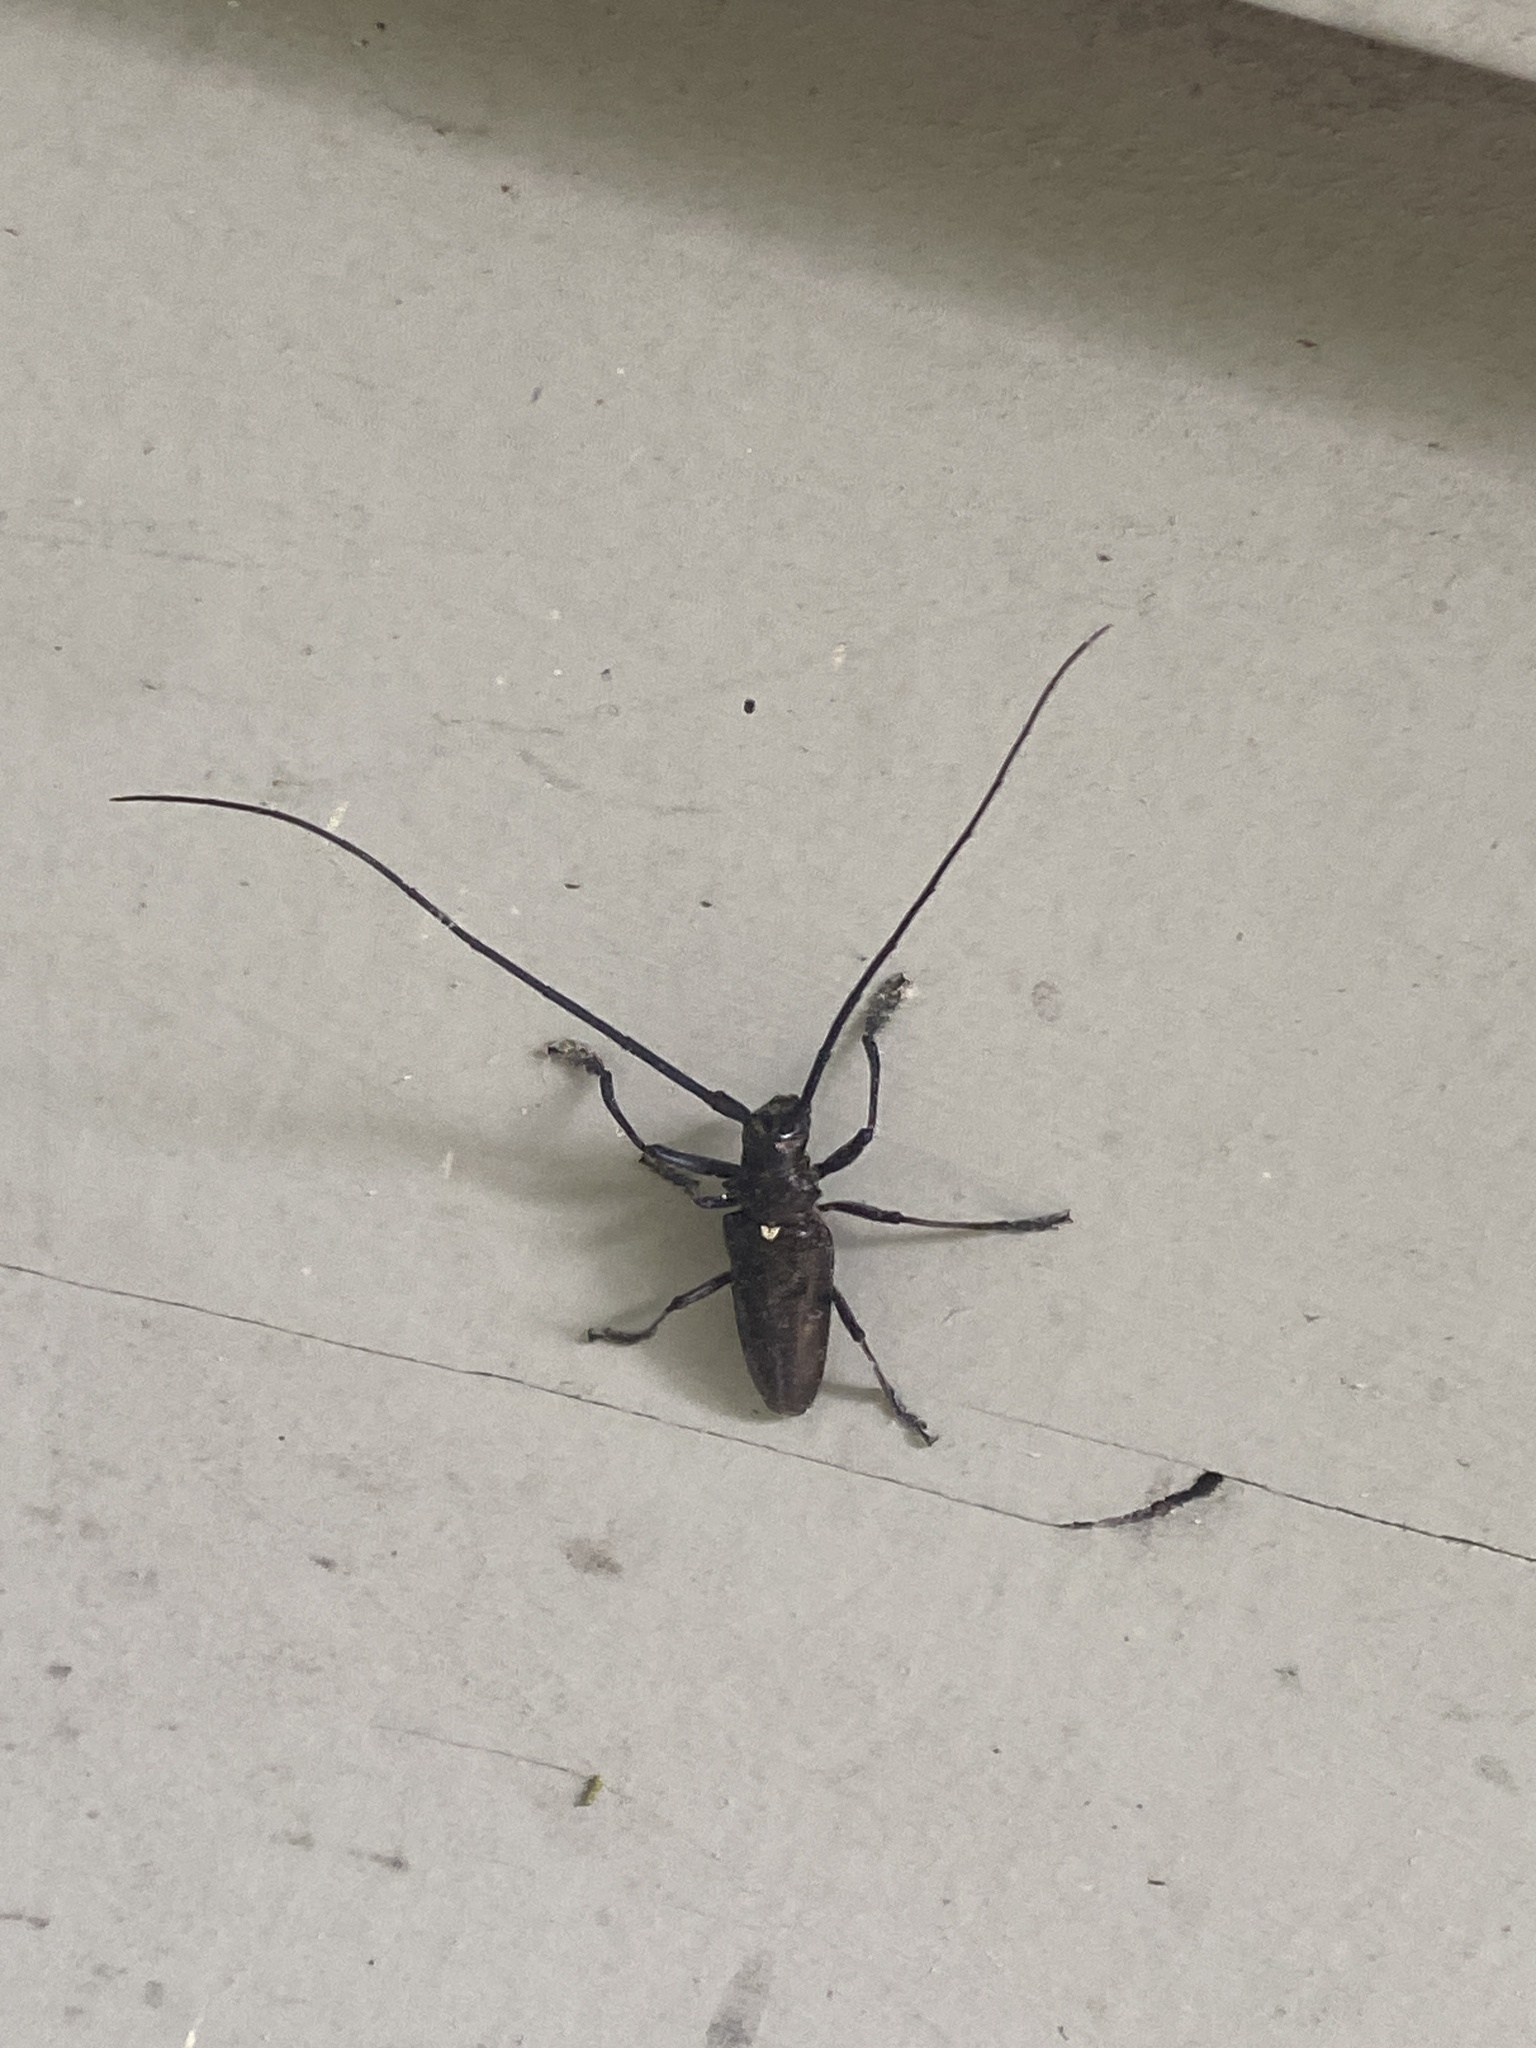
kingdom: Animalia
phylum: Arthropoda
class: Insecta
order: Coleoptera
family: Cerambycidae
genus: Monochamus
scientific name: Monochamus scutellatus
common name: White-spotted sawyer beetle
